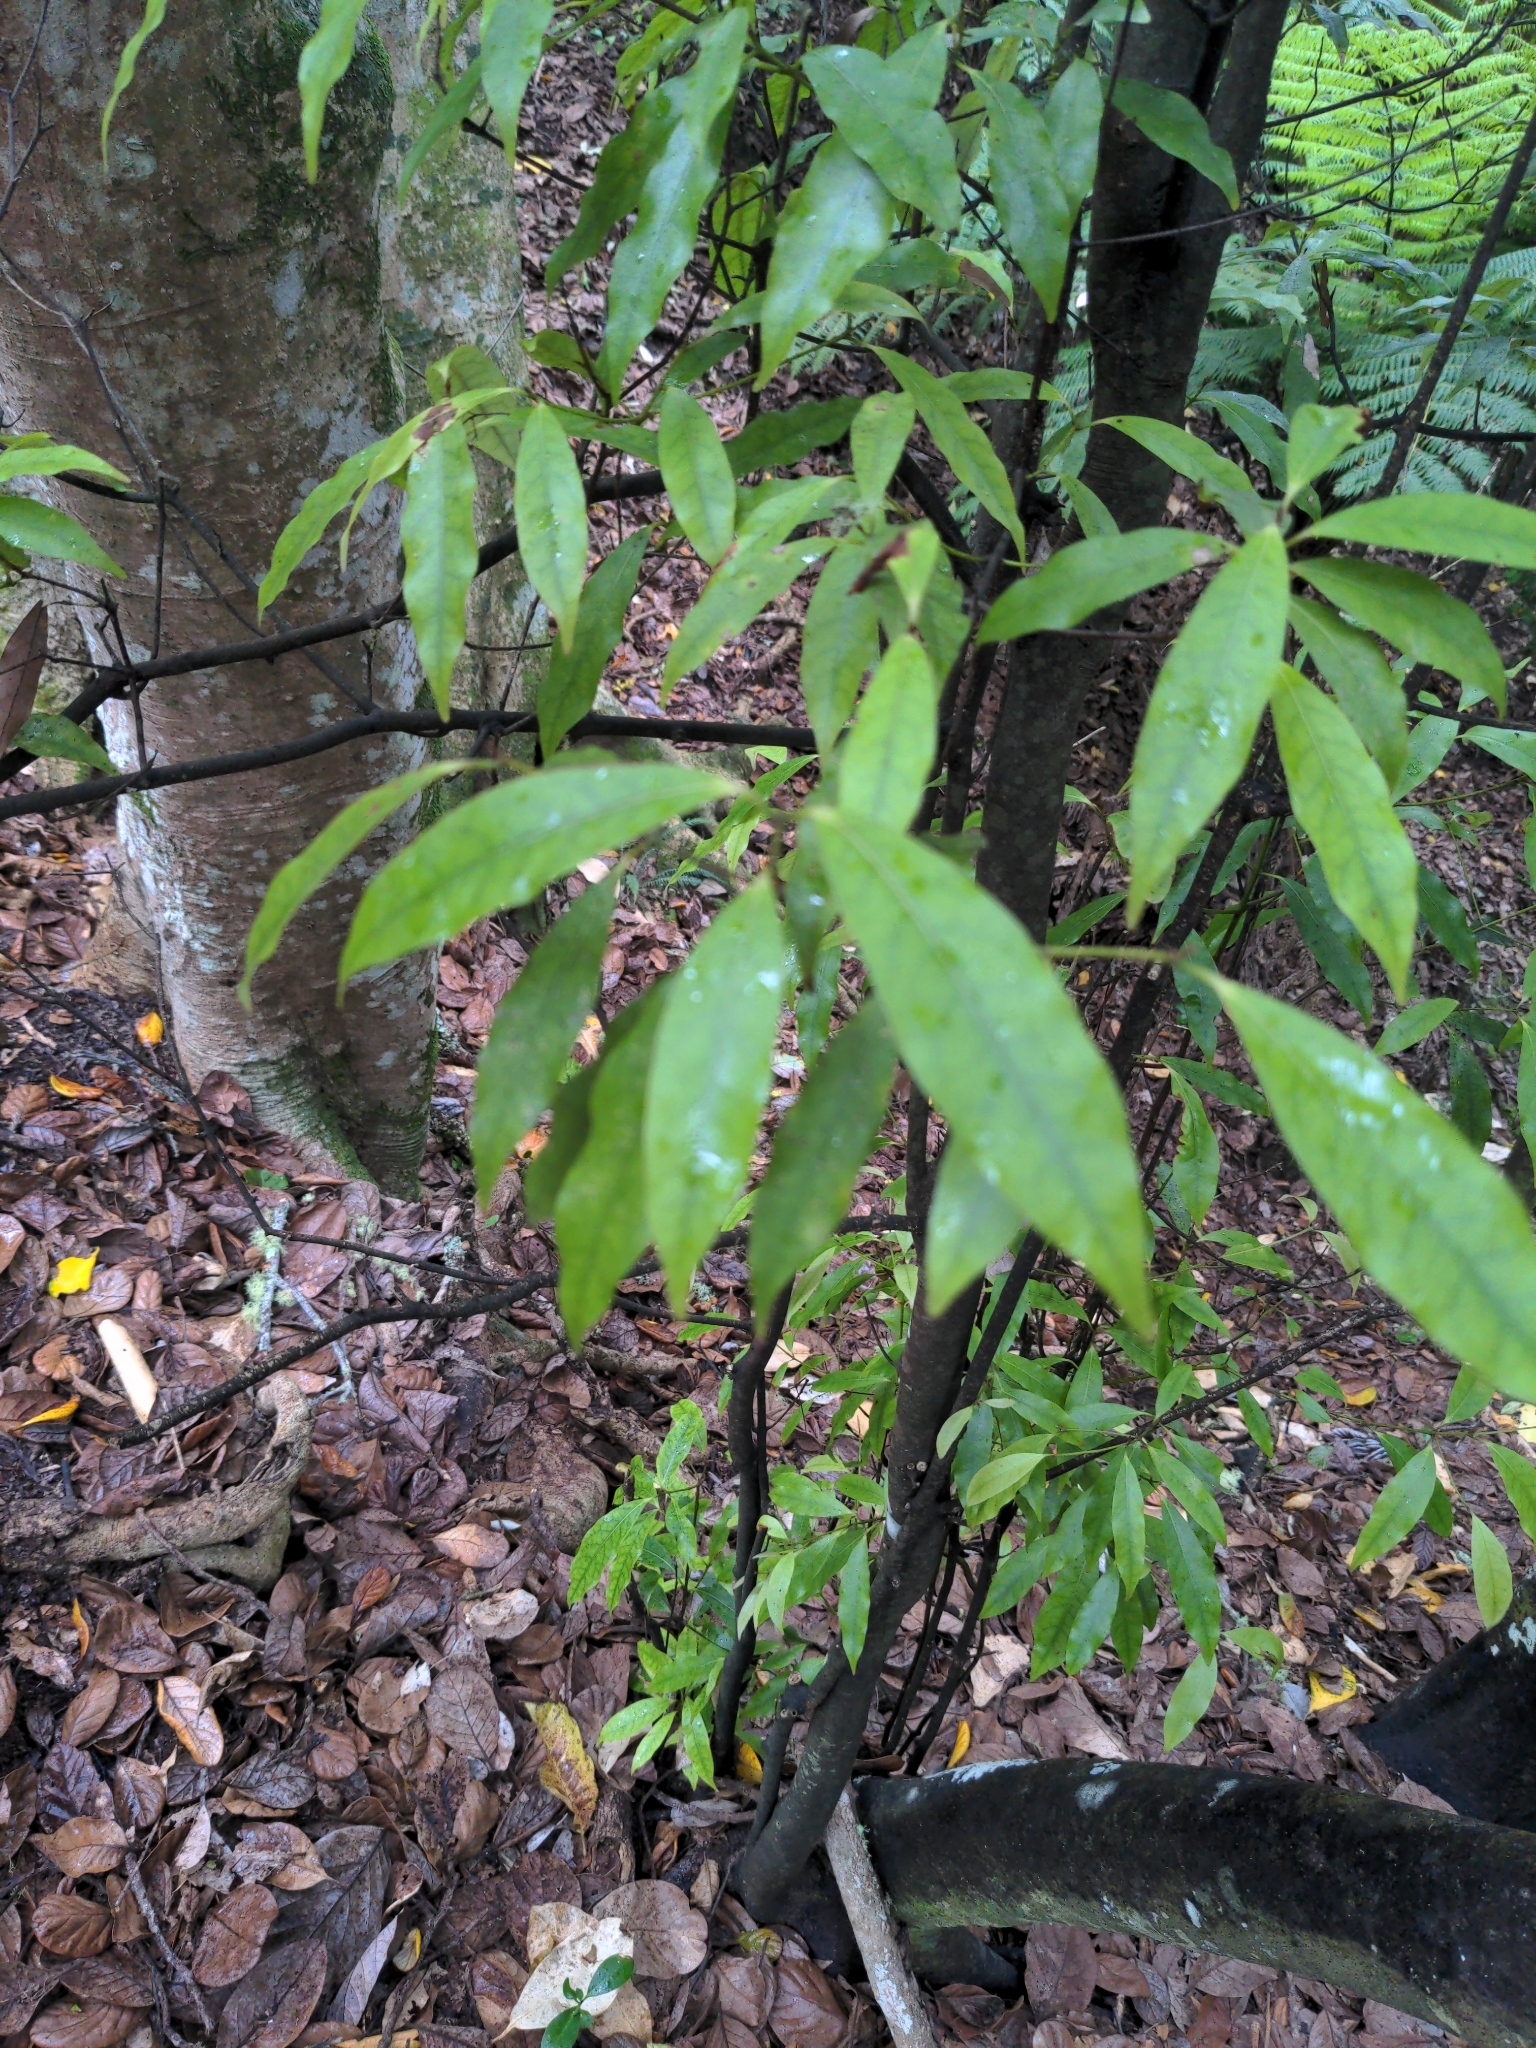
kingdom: Plantae
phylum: Tracheophyta
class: Magnoliopsida
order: Laurales
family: Lauraceae
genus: Beilschmiedia
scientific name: Beilschmiedia tawa
